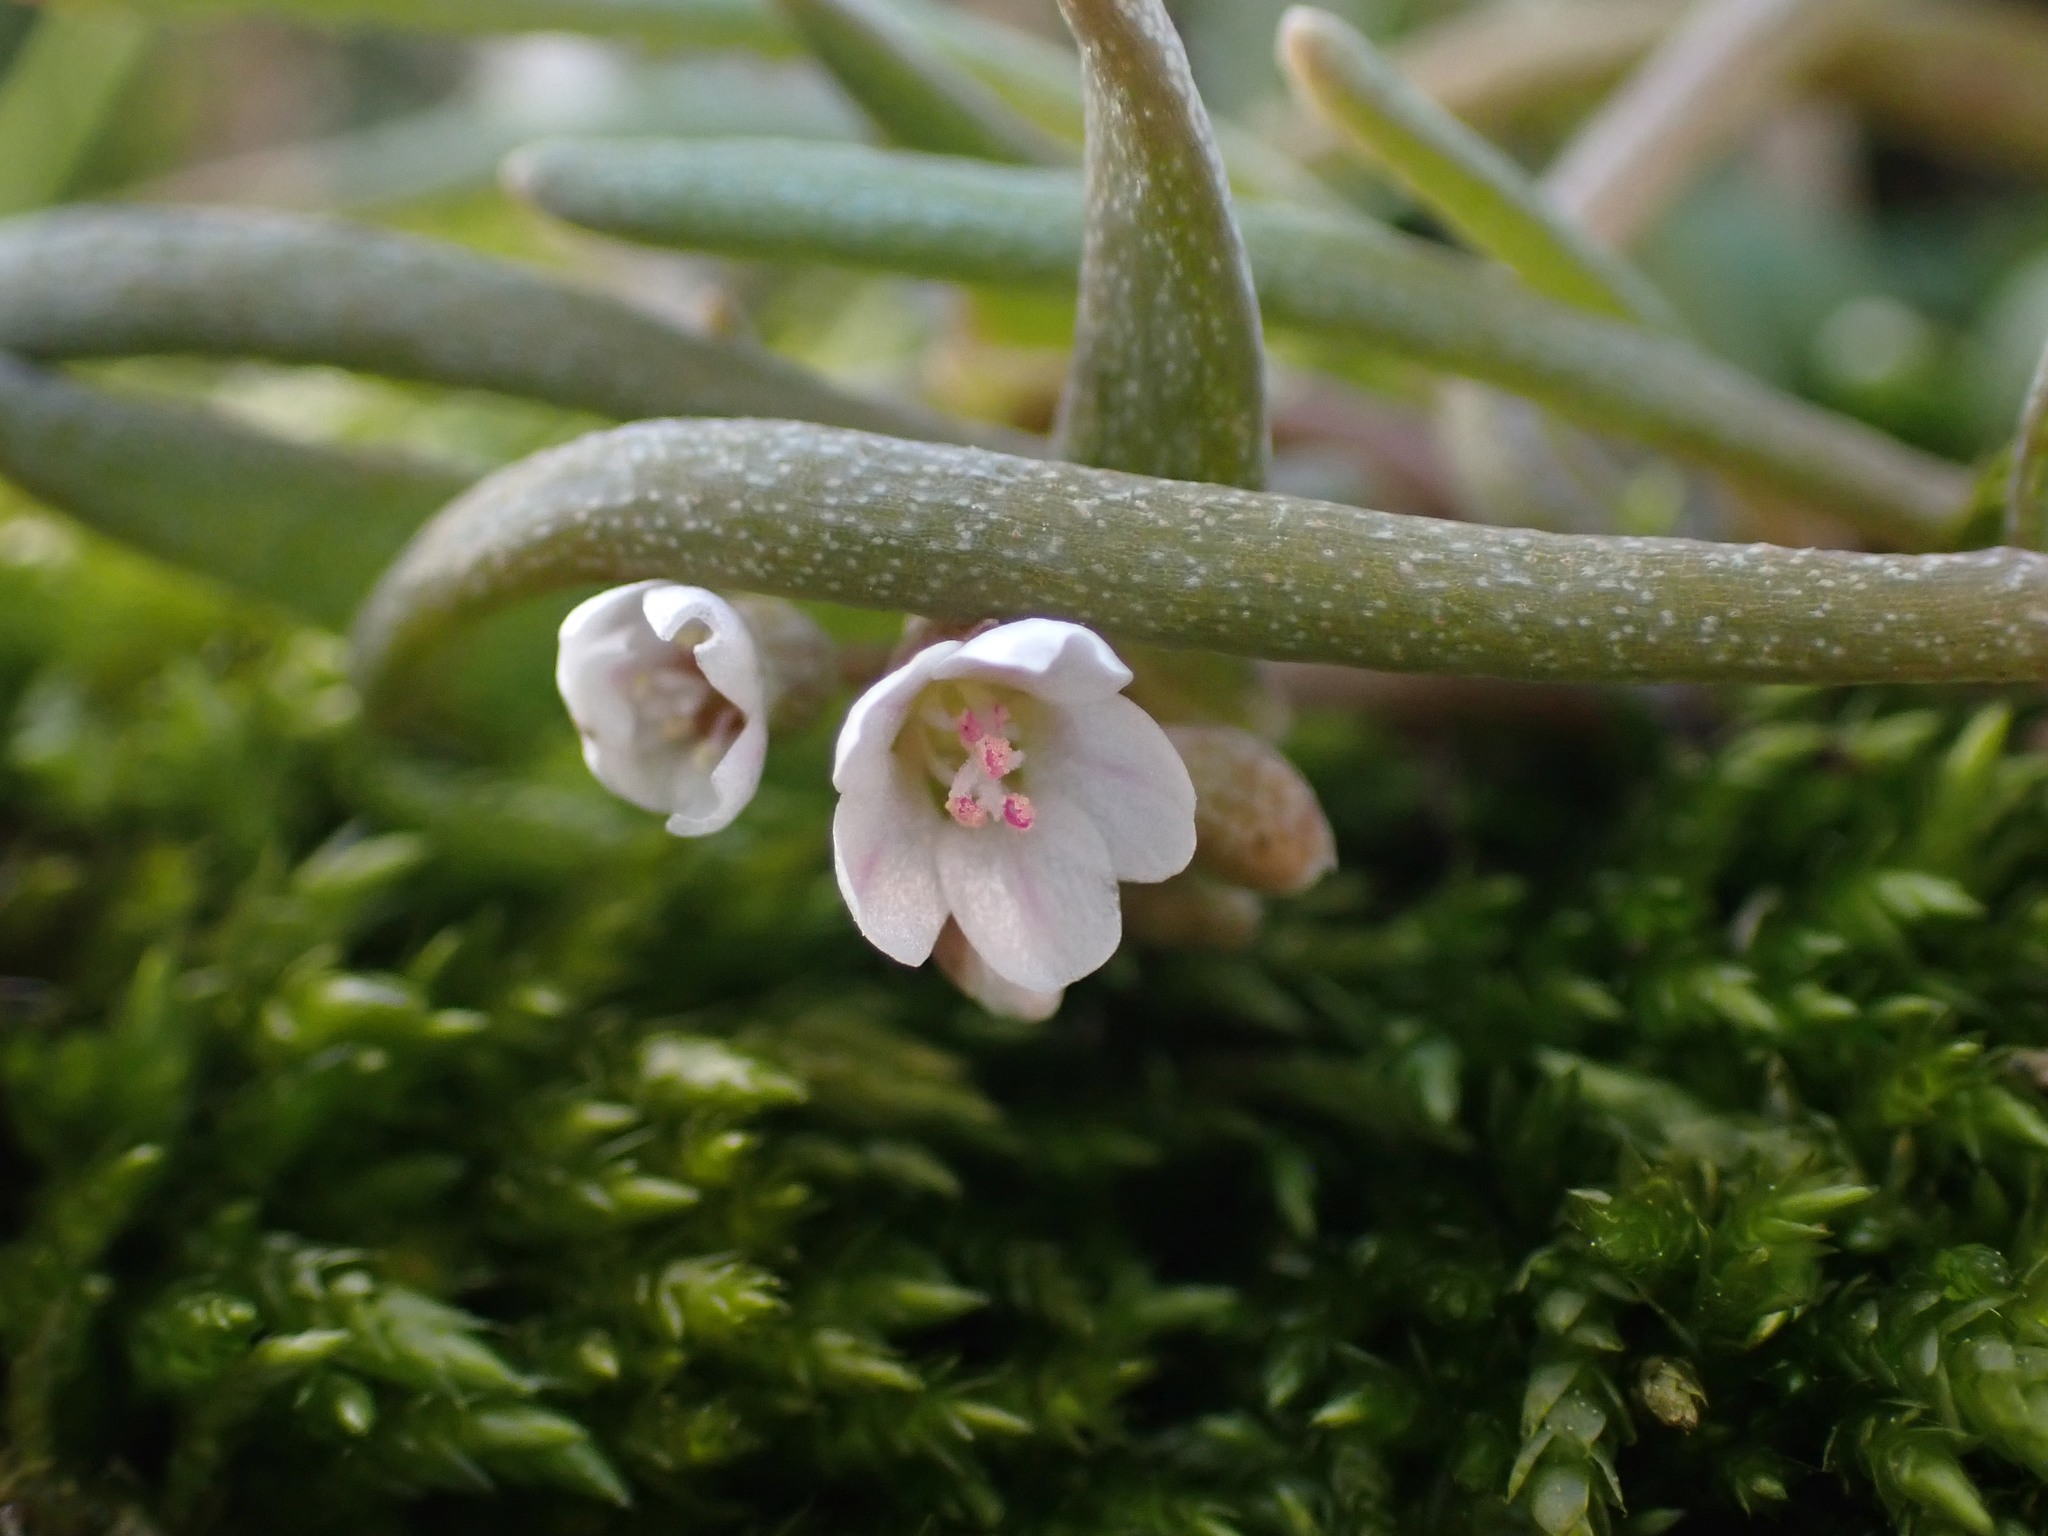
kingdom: Plantae
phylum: Tracheophyta
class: Magnoliopsida
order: Caryophyllales
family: Montiaceae
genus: Claytonia
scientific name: Claytonia exigua
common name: Pale spring beauty
